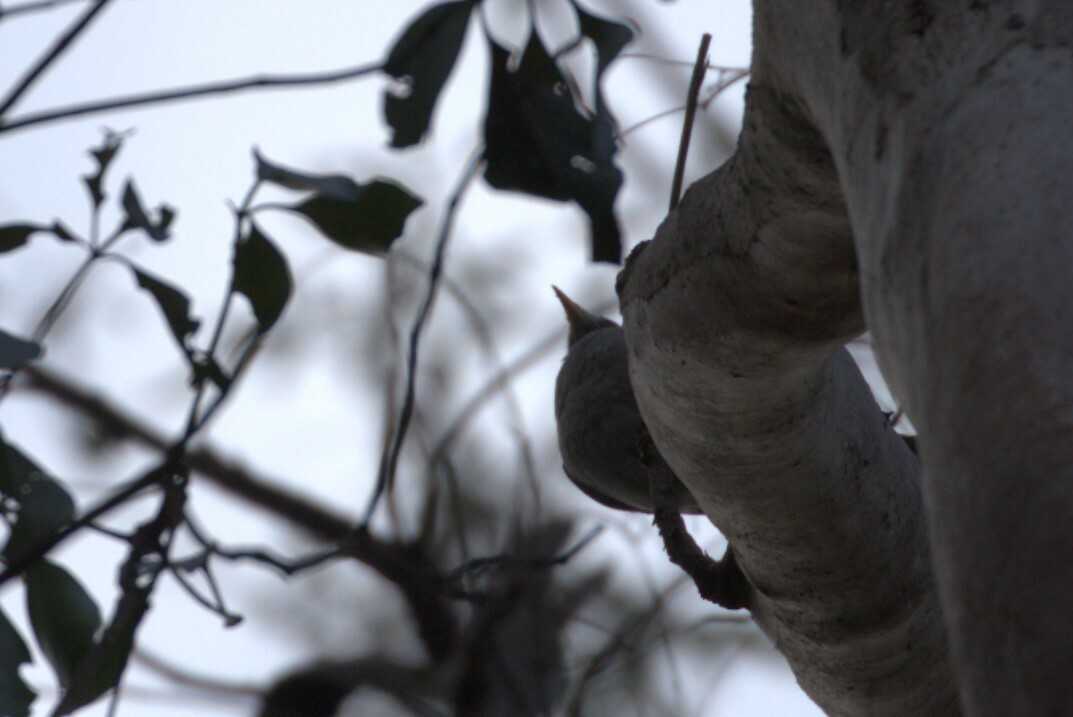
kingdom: Animalia
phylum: Chordata
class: Aves
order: Passeriformes
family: Meliphagidae
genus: Manorina
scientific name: Manorina melanocephala
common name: Noisy miner
